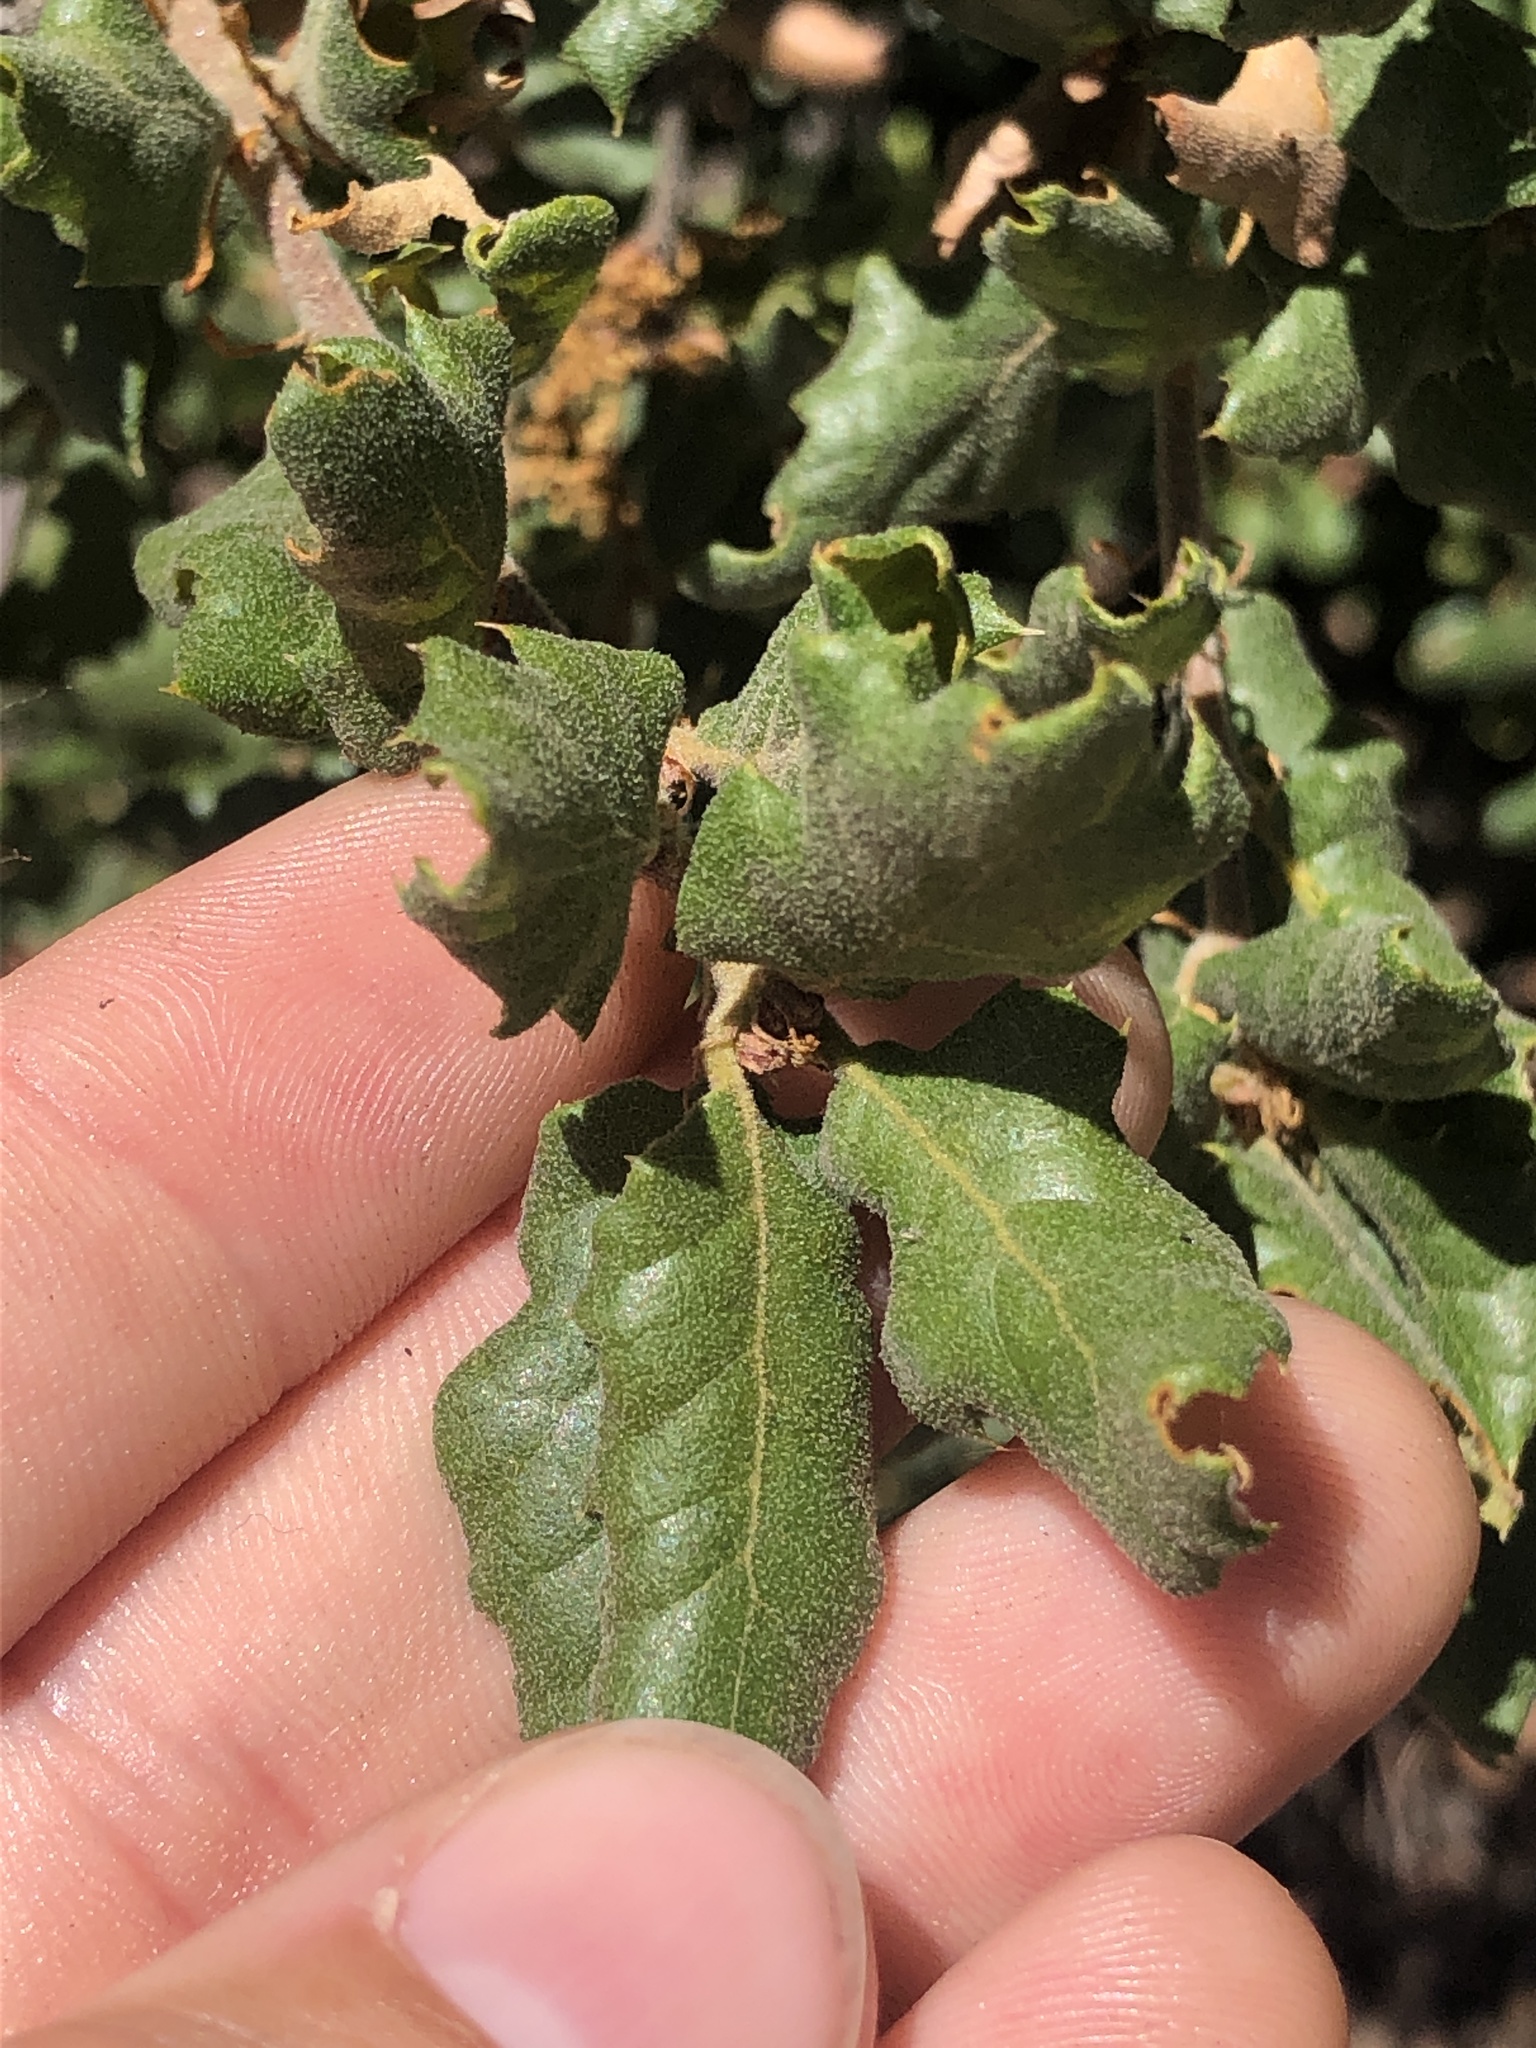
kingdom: Plantae
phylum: Tracheophyta
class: Magnoliopsida
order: Fagales
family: Fagaceae
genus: Quercus
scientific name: Quercus durata
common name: Leather oak
